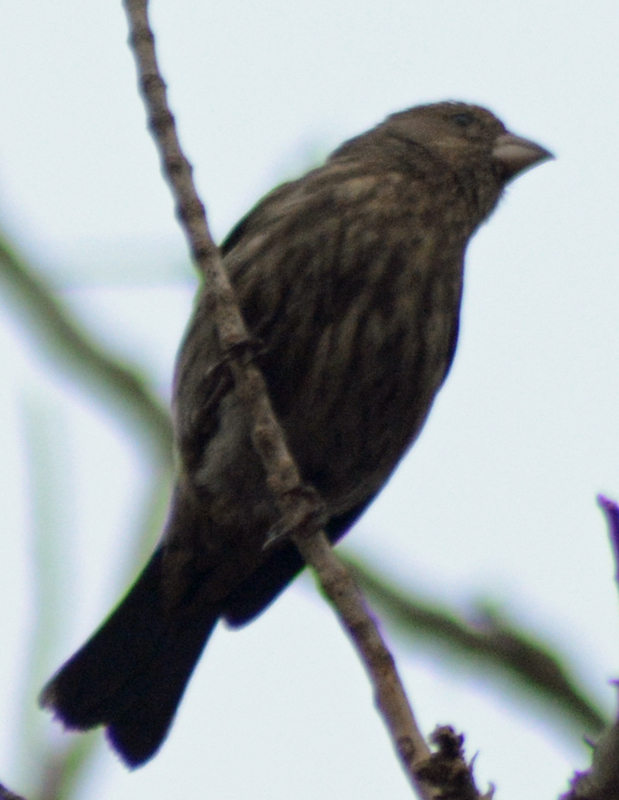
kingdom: Animalia
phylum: Chordata
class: Aves
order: Passeriformes
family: Fringillidae
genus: Haemorhous
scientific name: Haemorhous mexicanus
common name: House finch
